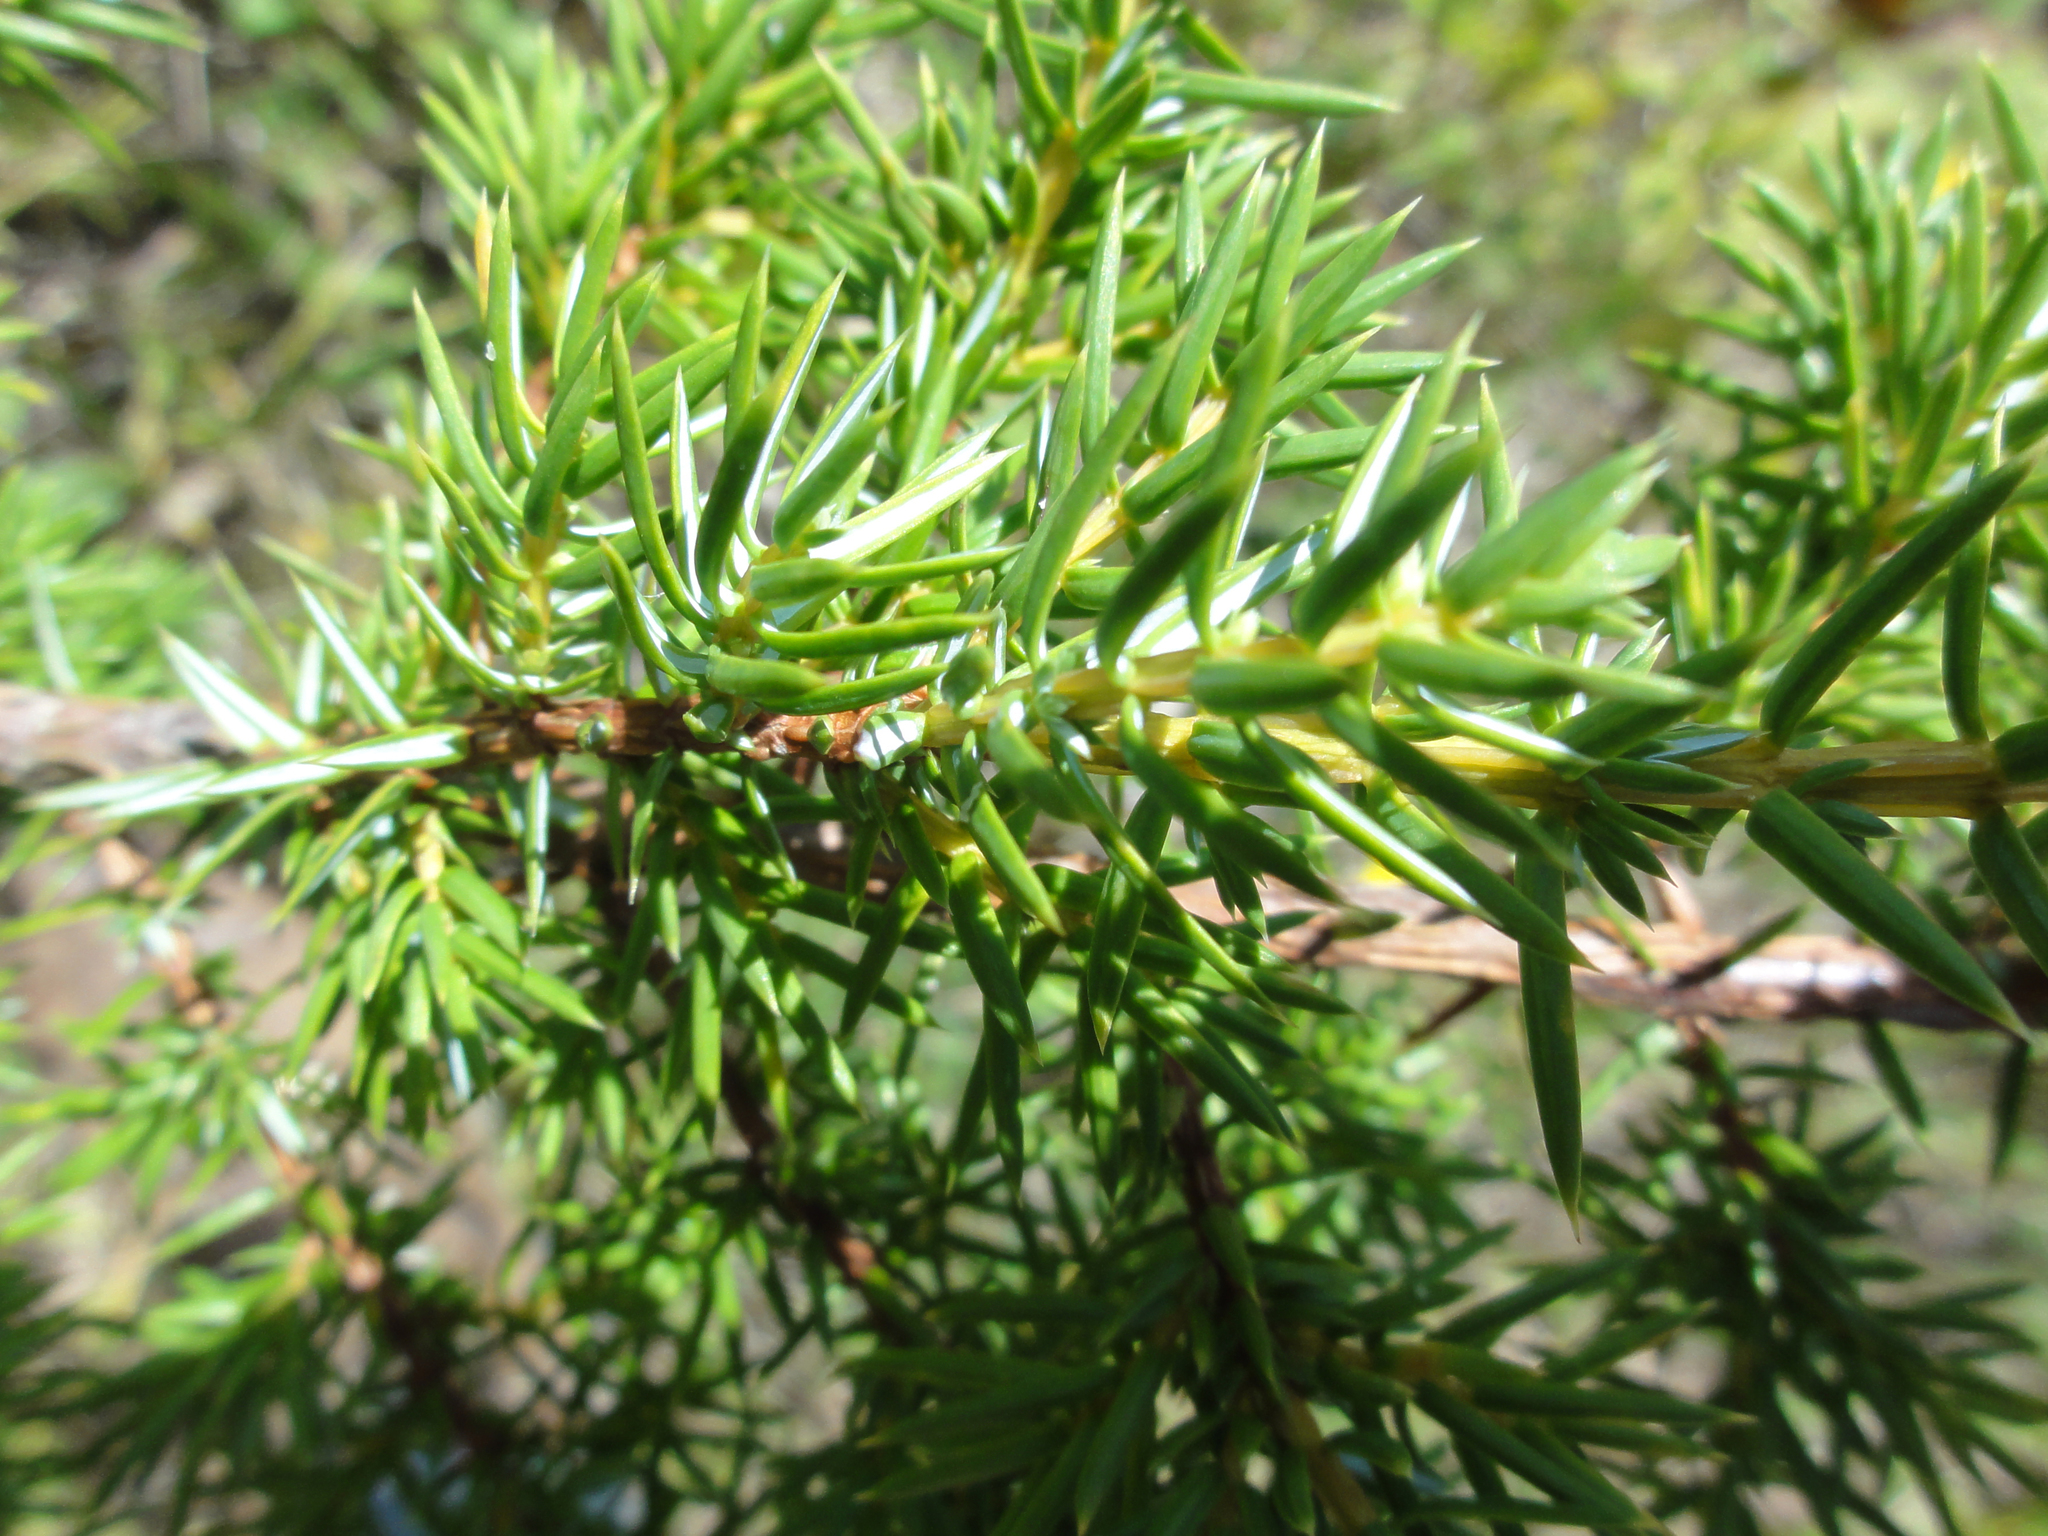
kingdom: Plantae
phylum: Tracheophyta
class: Pinopsida
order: Pinales
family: Cupressaceae
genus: Juniperus
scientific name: Juniperus communis
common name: Common juniper
